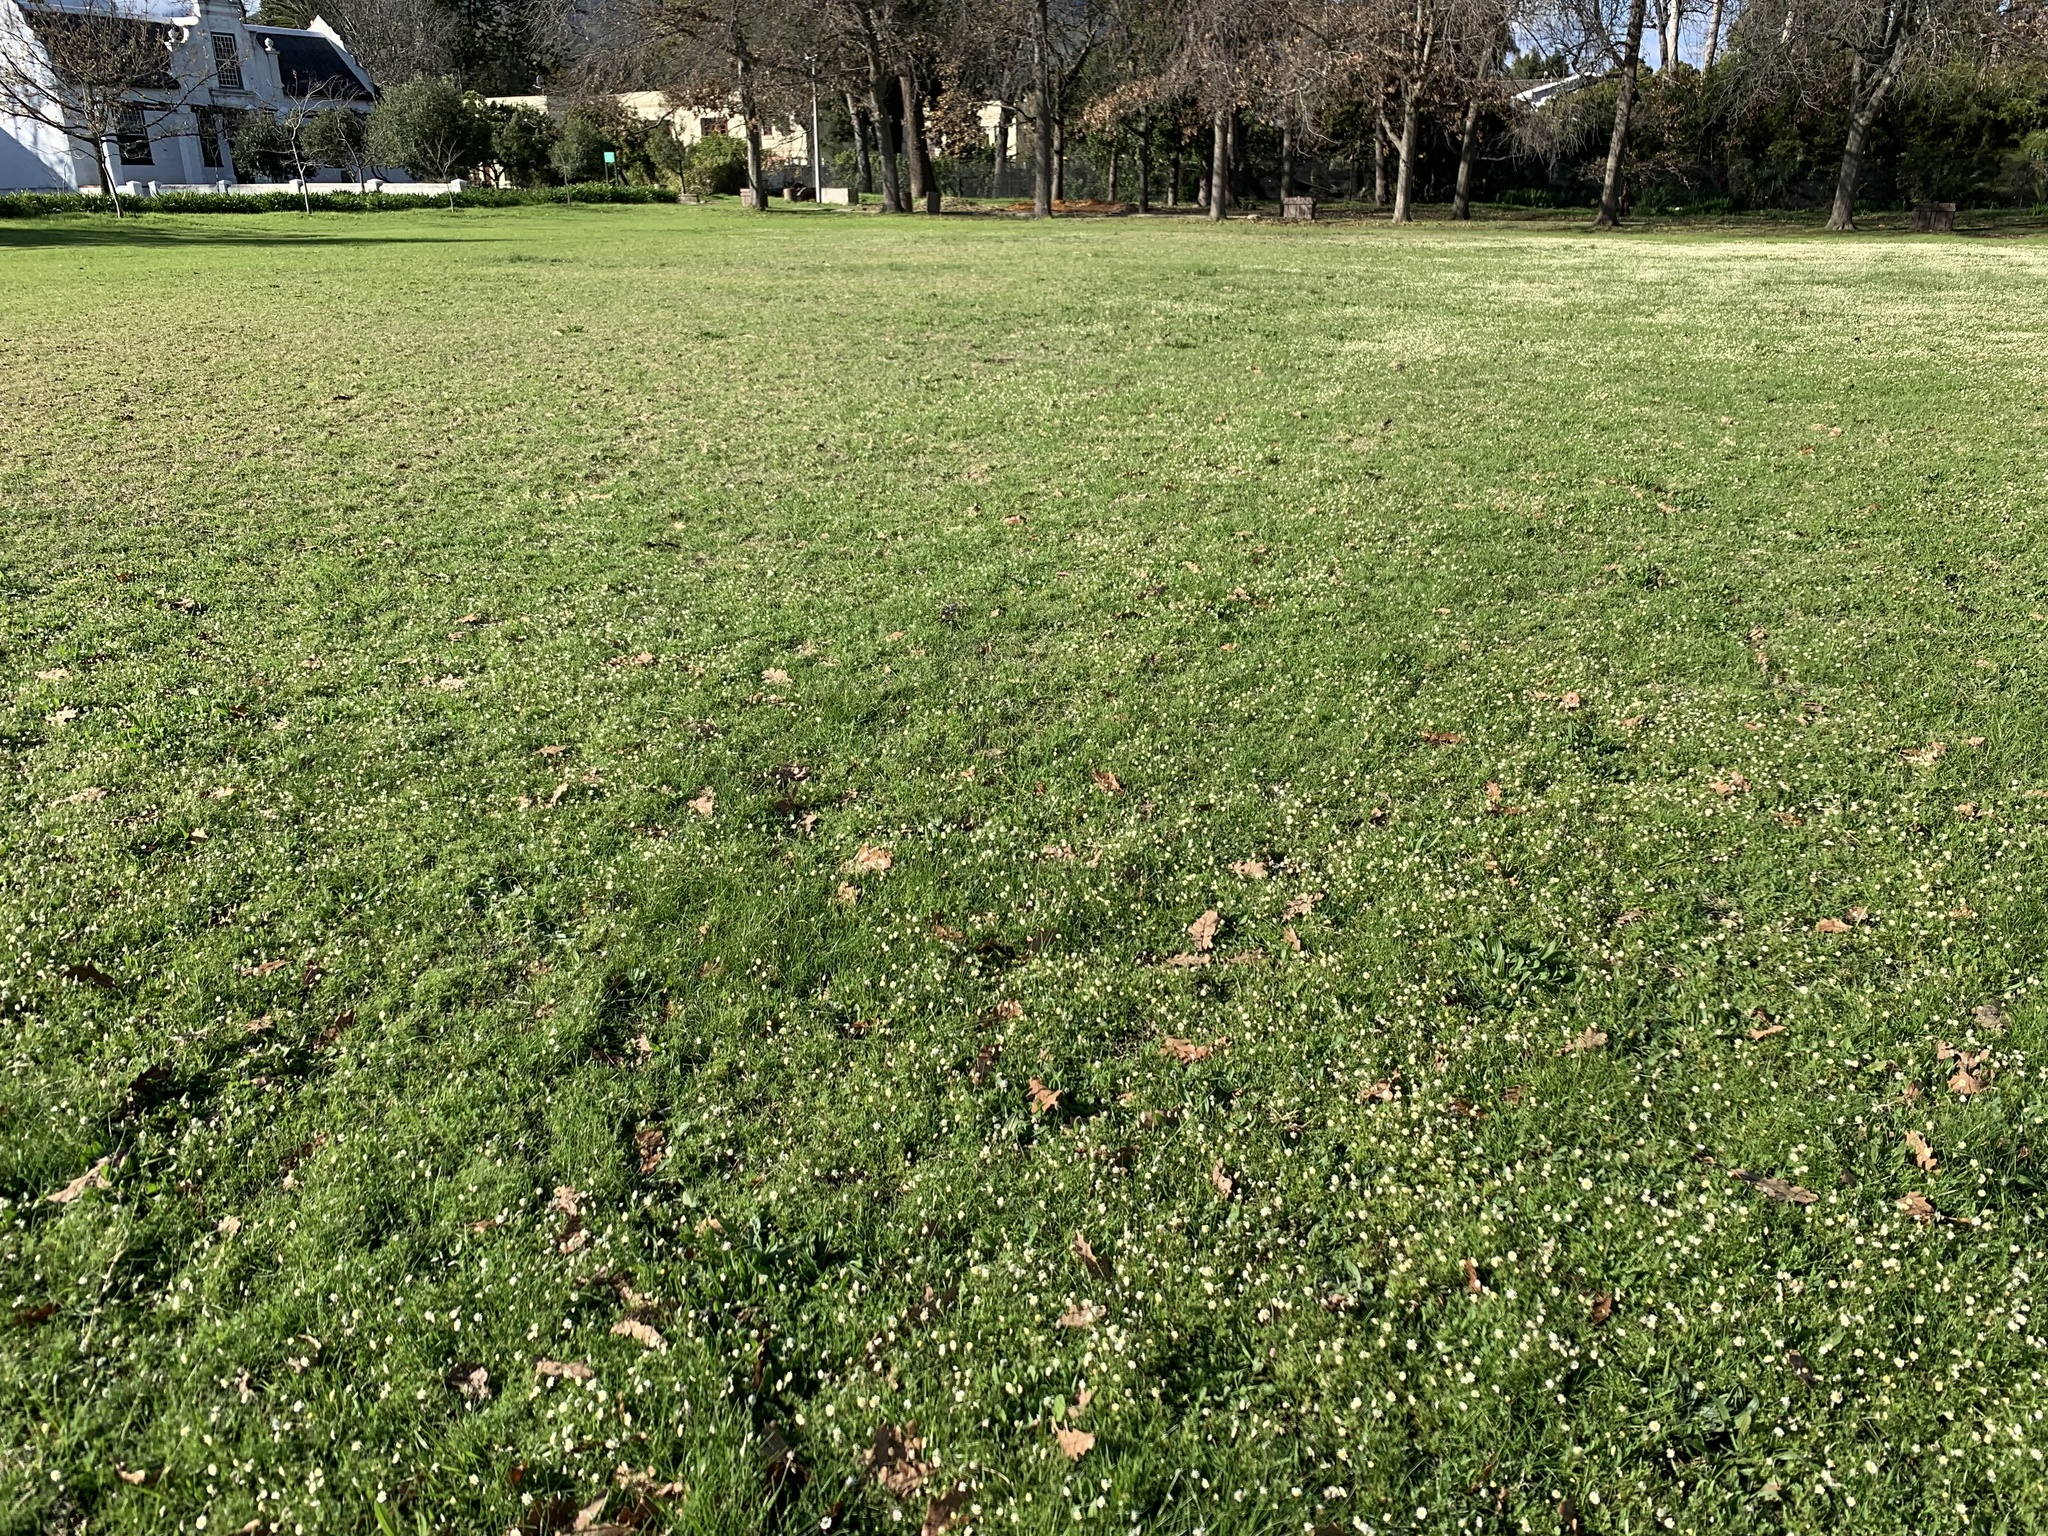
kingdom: Plantae
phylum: Tracheophyta
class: Magnoliopsida
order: Asterales
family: Asteraceae
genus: Cotula
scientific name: Cotula turbinata
